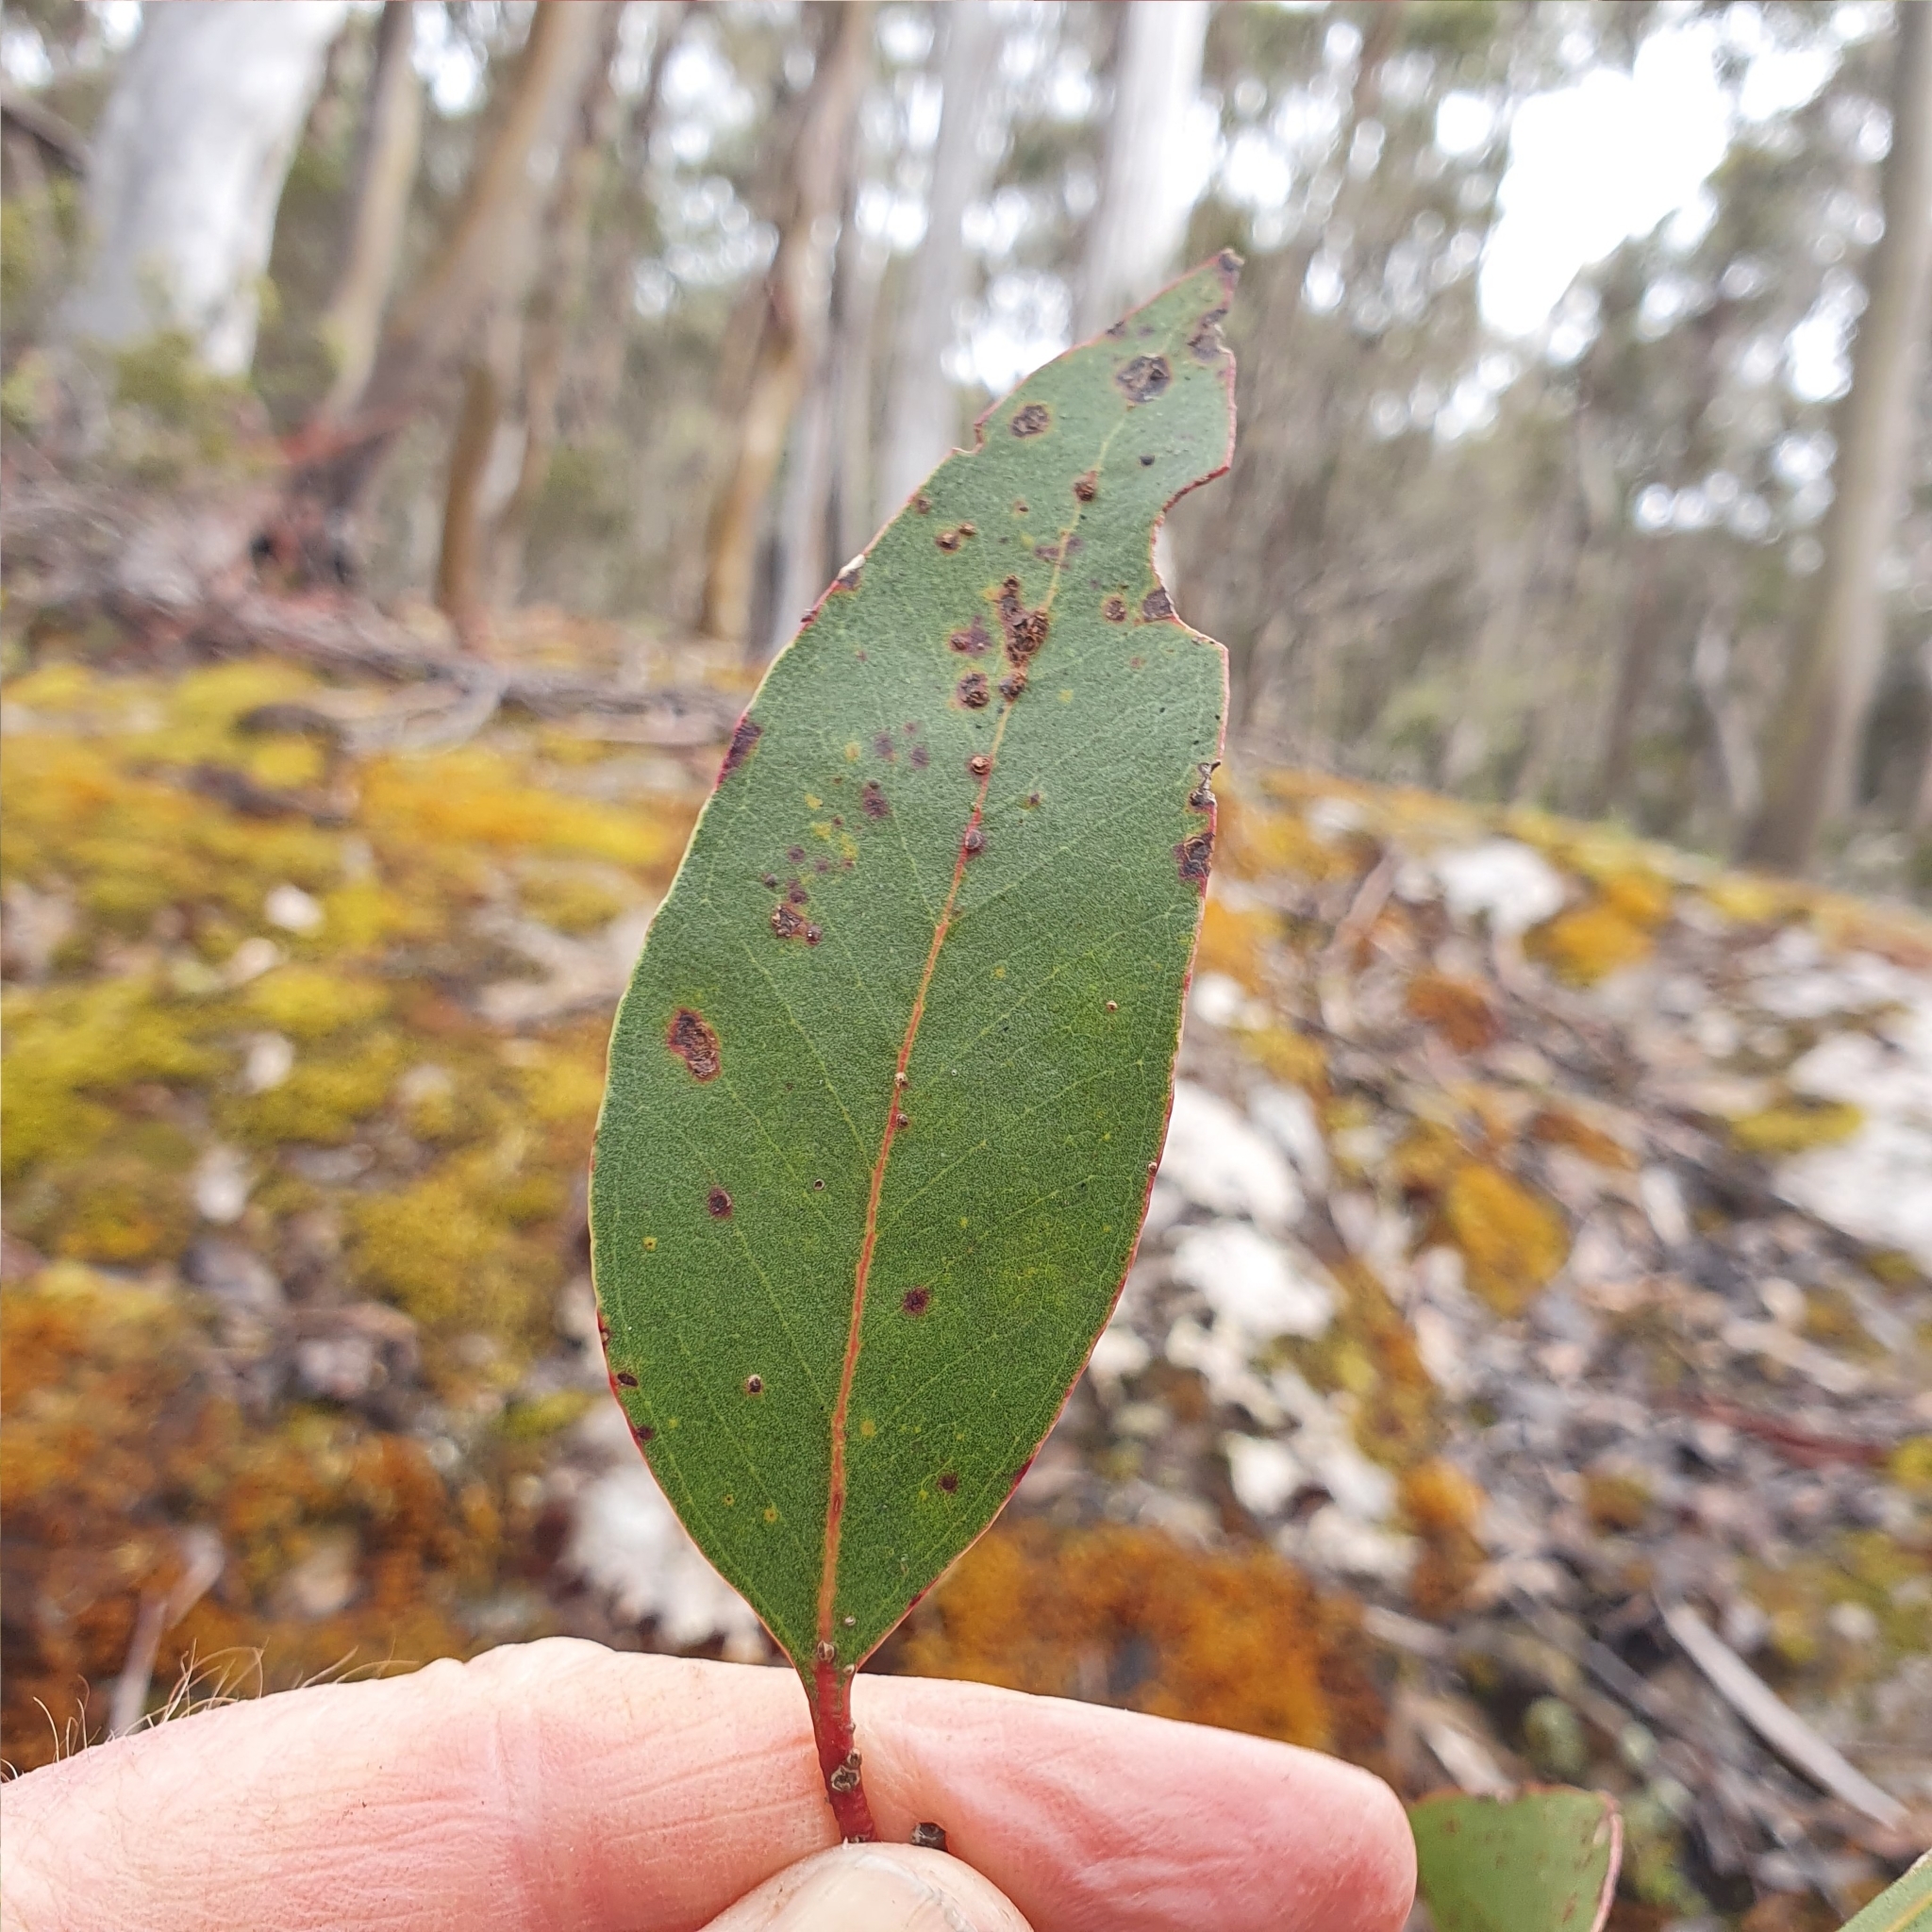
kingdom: Plantae
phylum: Tracheophyta
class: Magnoliopsida
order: Myrtales
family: Myrtaceae
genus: Eucalyptus
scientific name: Eucalyptus subcrenulata
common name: Alpine yellow gum
